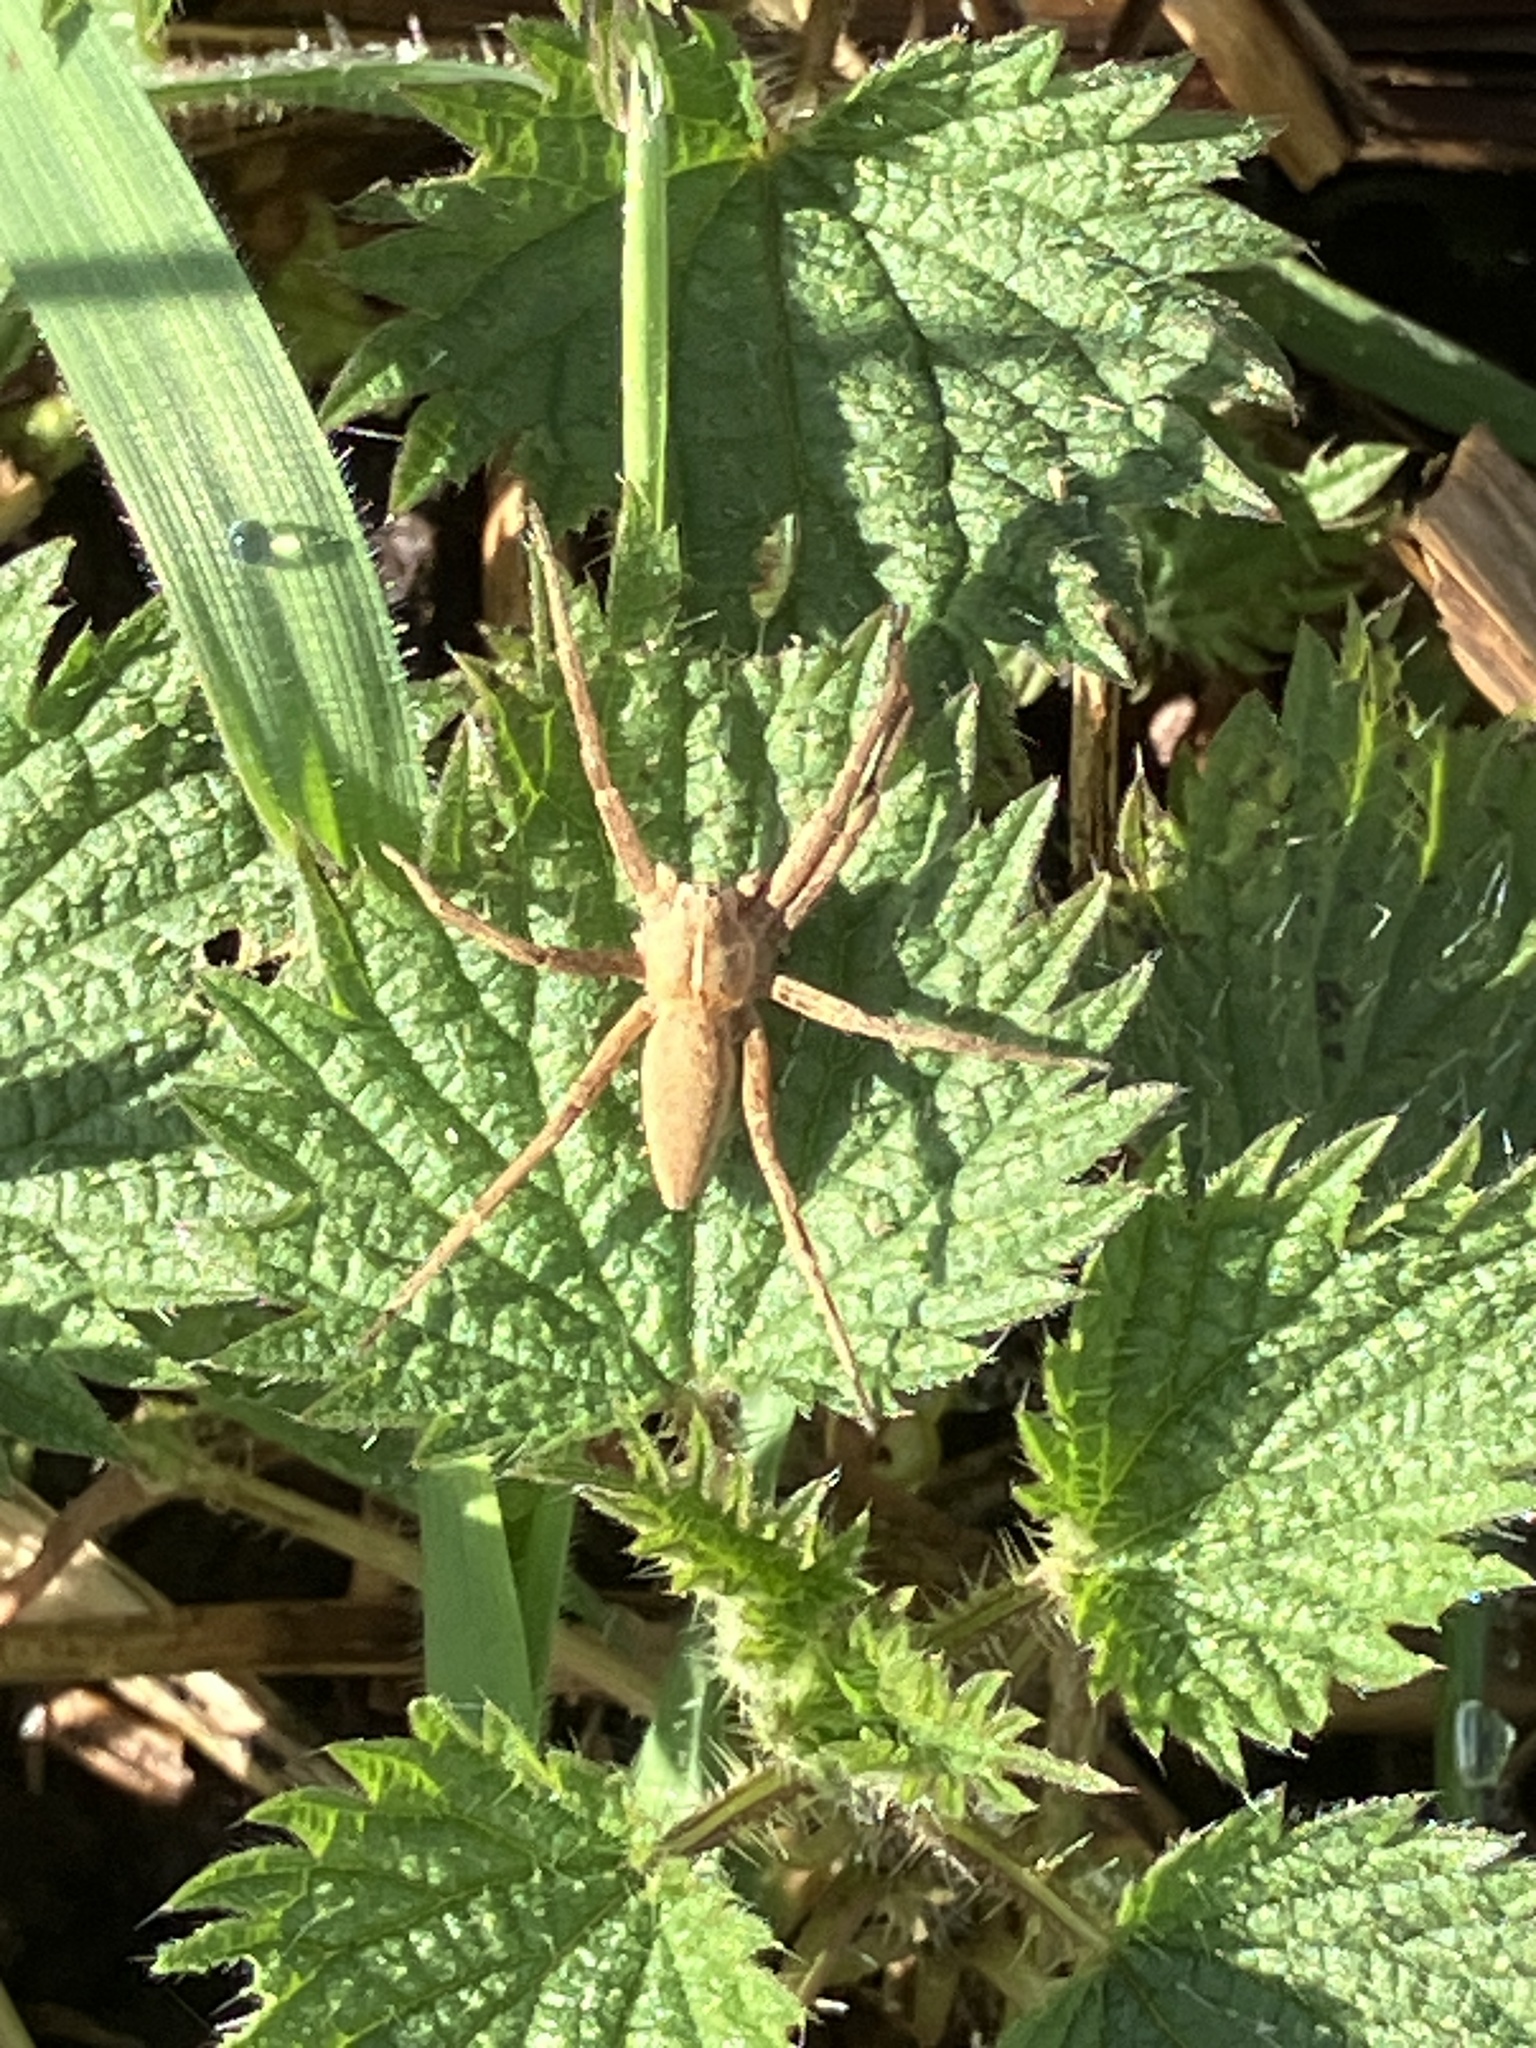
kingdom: Animalia
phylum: Arthropoda
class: Arachnida
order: Araneae
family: Pisauridae
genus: Pisaura
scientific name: Pisaura mirabilis
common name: Tent spider
